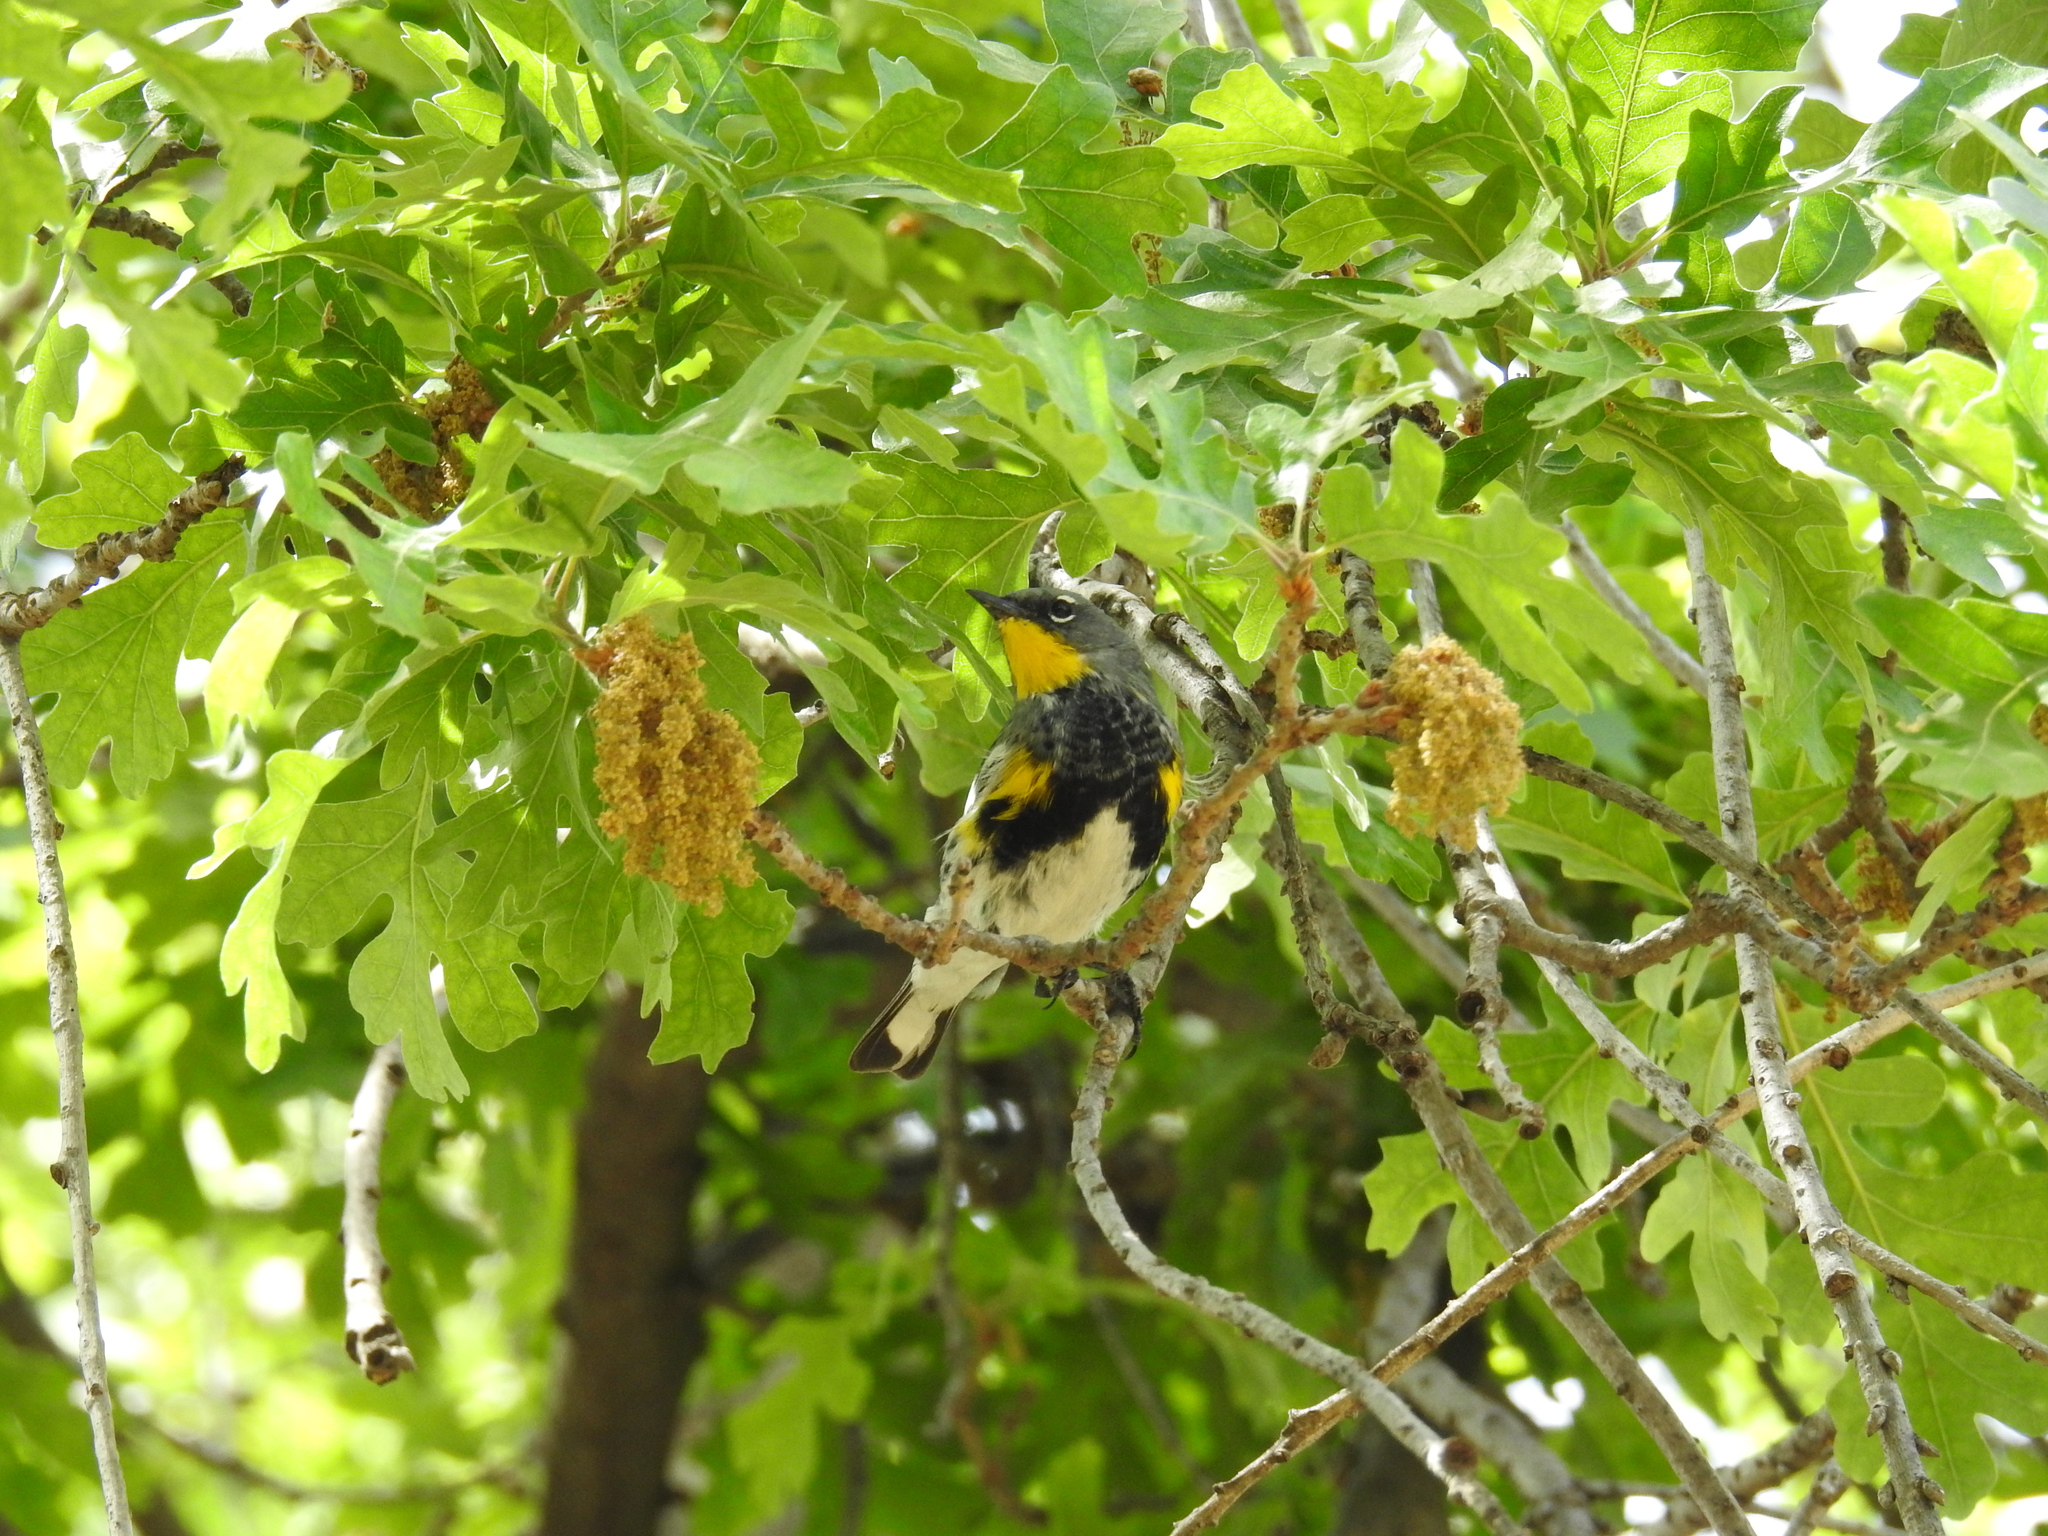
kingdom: Animalia
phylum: Chordata
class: Aves
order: Passeriformes
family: Parulidae
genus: Setophaga
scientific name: Setophaga coronata
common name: Myrtle warbler
